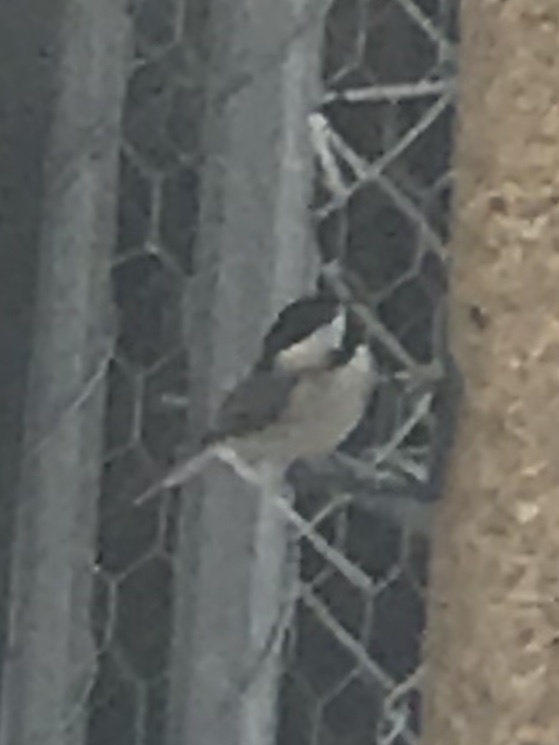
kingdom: Animalia
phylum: Chordata
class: Aves
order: Passeriformes
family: Paridae
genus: Poecile
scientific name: Poecile carolinensis
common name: Carolina chickadee
